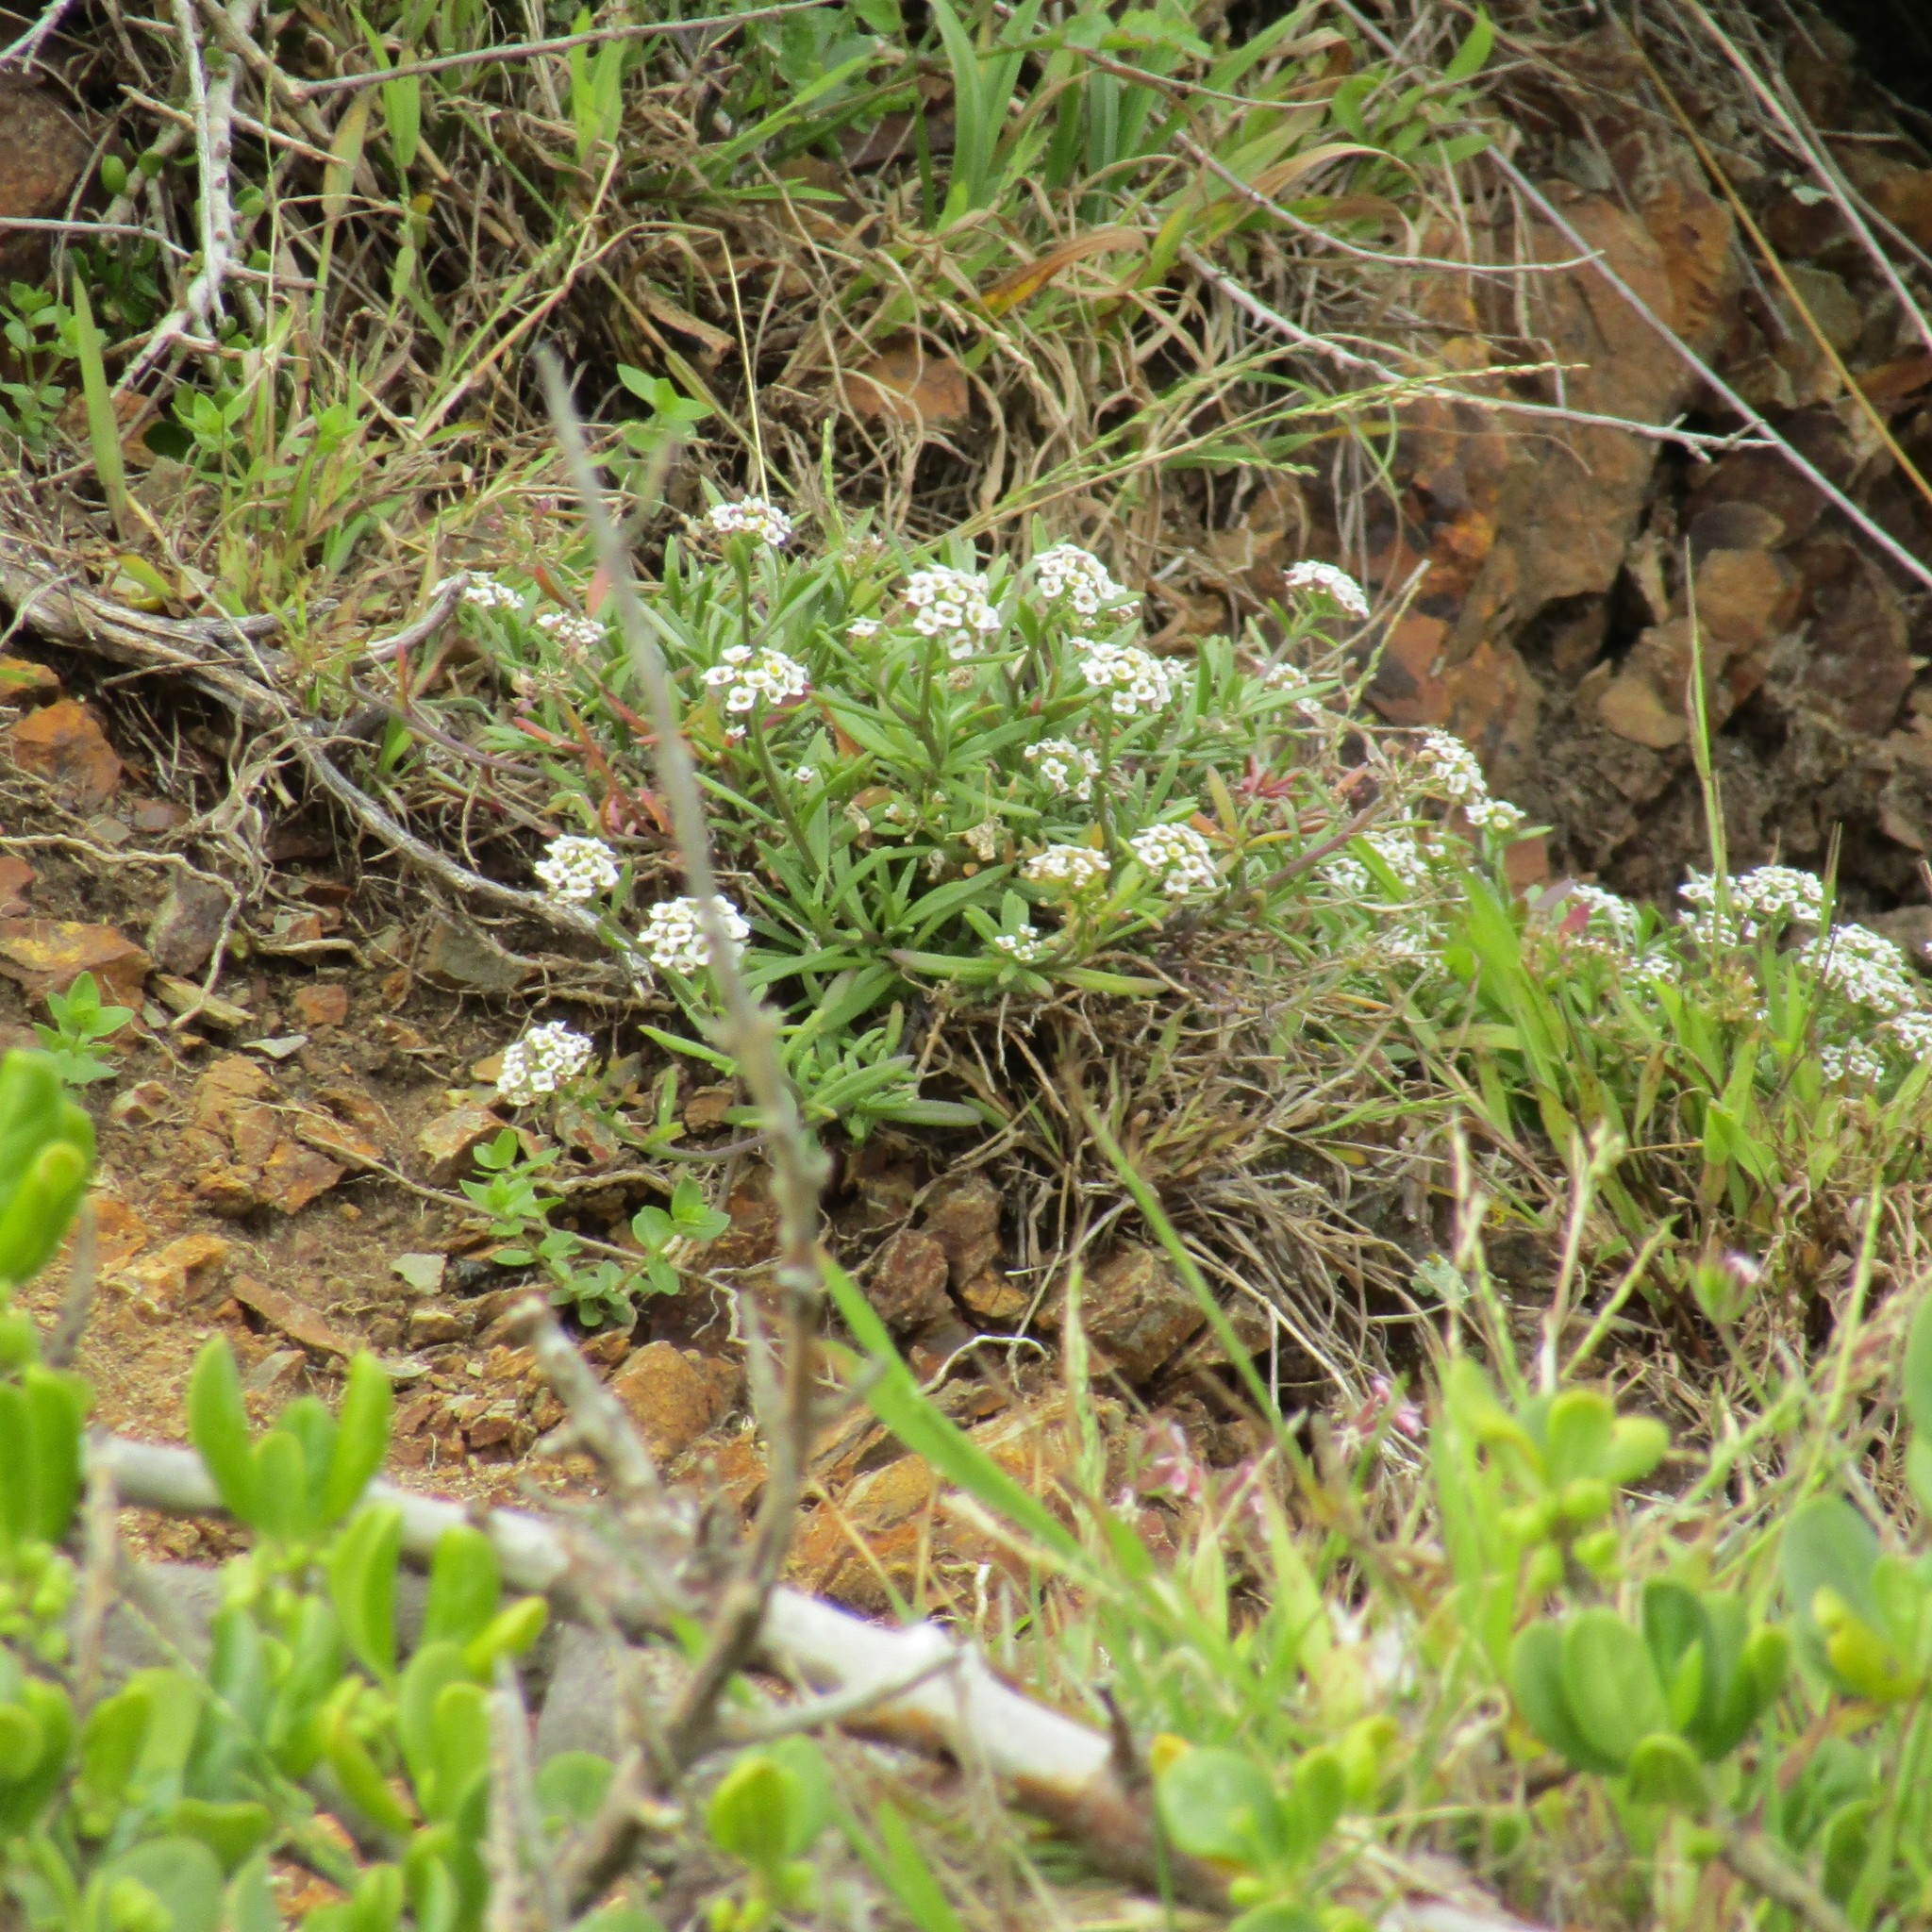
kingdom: Plantae
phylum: Tracheophyta
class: Magnoliopsida
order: Brassicales
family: Brassicaceae
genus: Lobularia
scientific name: Lobularia maritima
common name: Sweet alison
